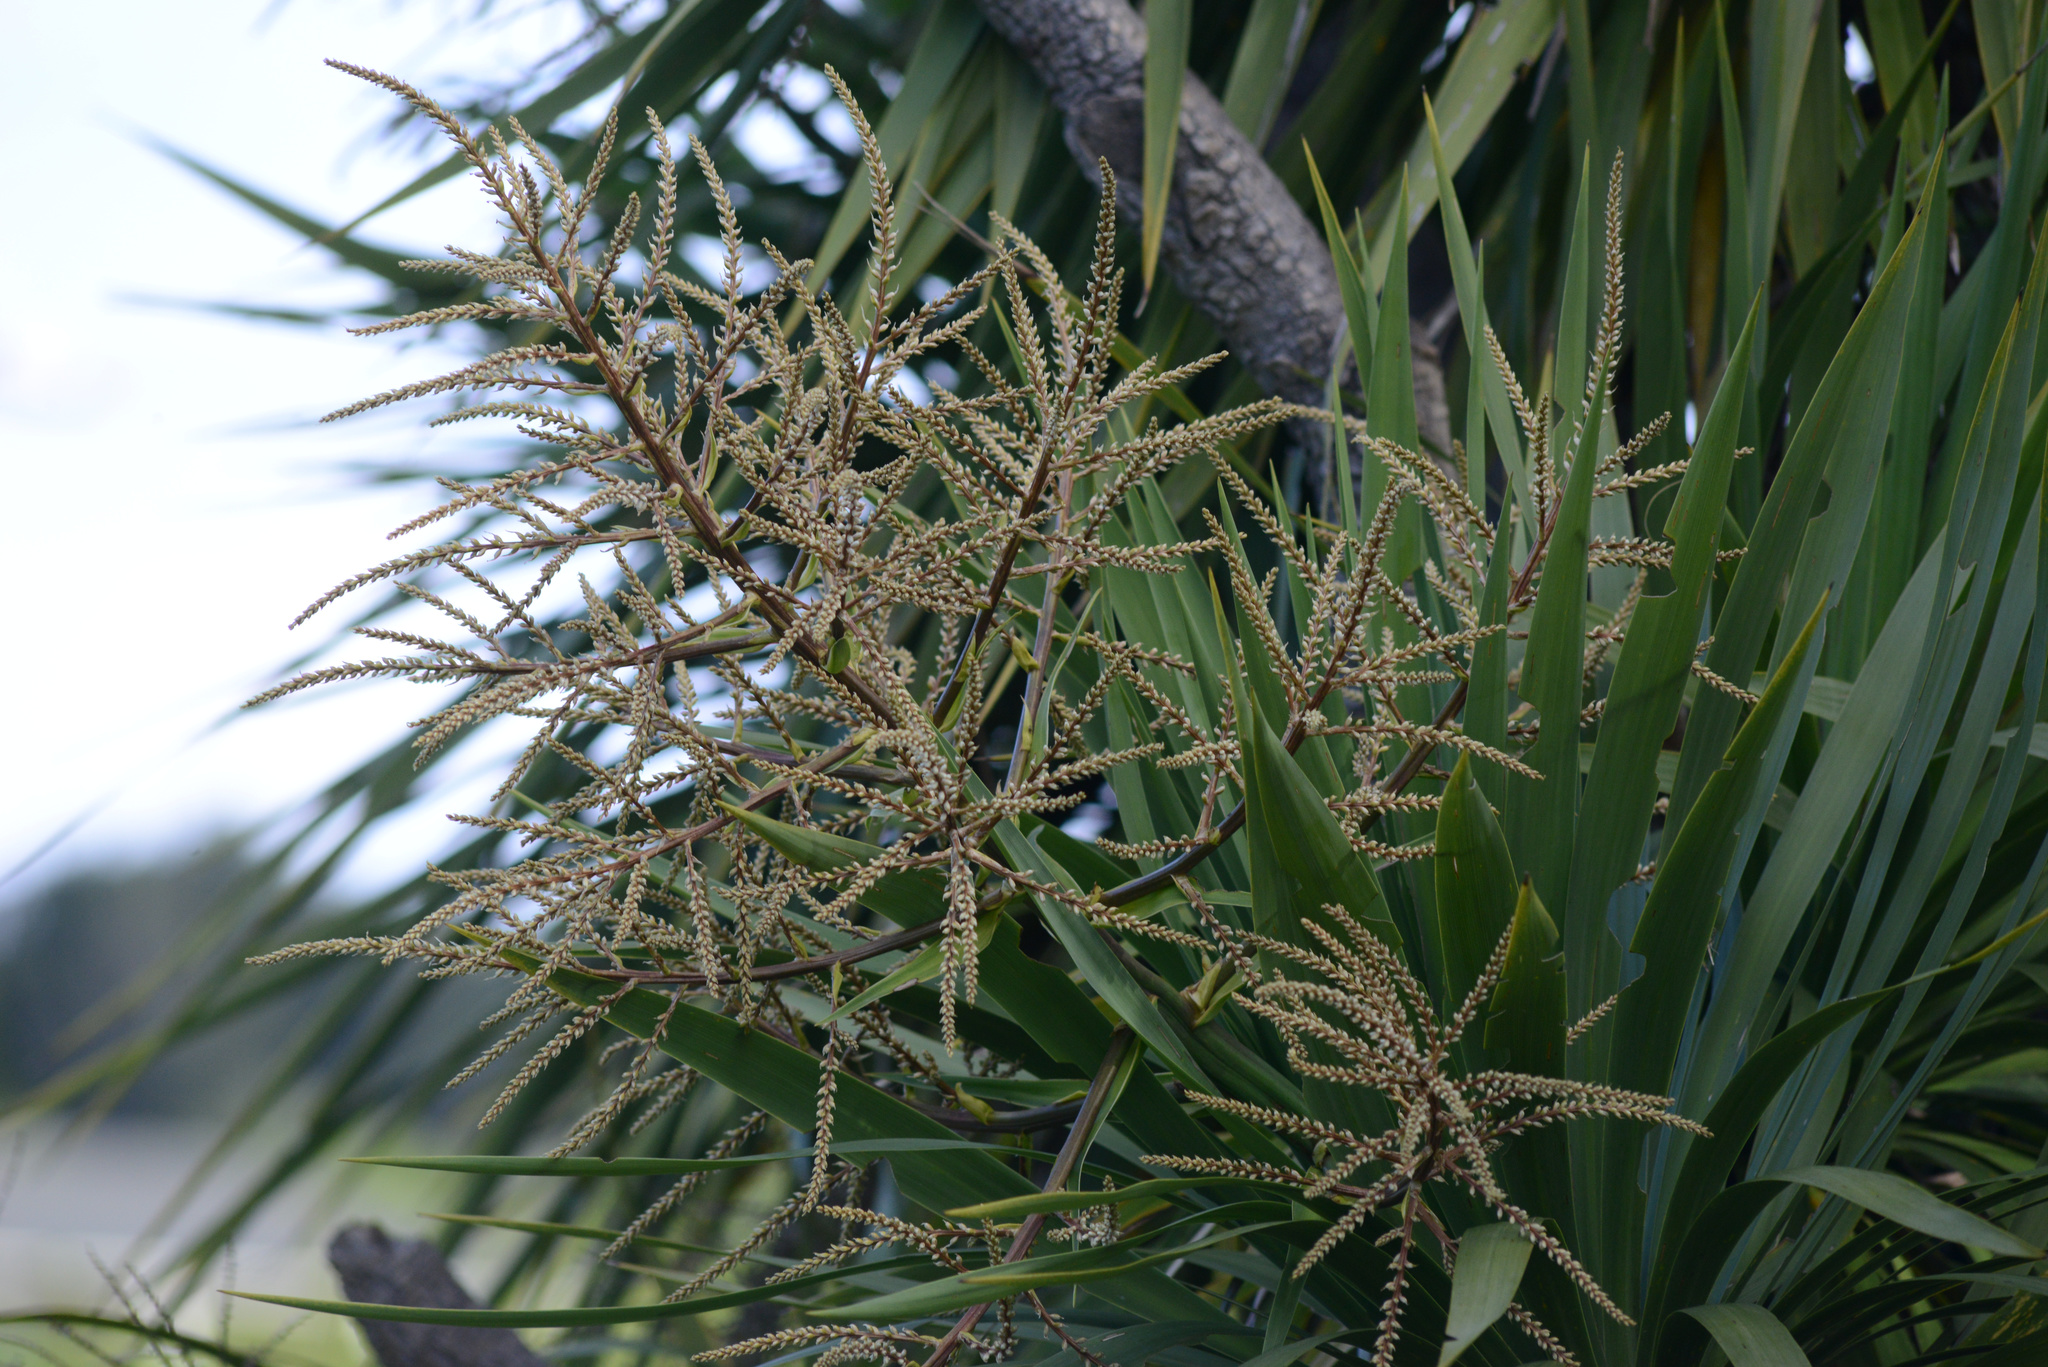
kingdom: Plantae
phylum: Tracheophyta
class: Liliopsida
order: Asparagales
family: Asparagaceae
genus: Cordyline
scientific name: Cordyline australis
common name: Cabbage-palm
